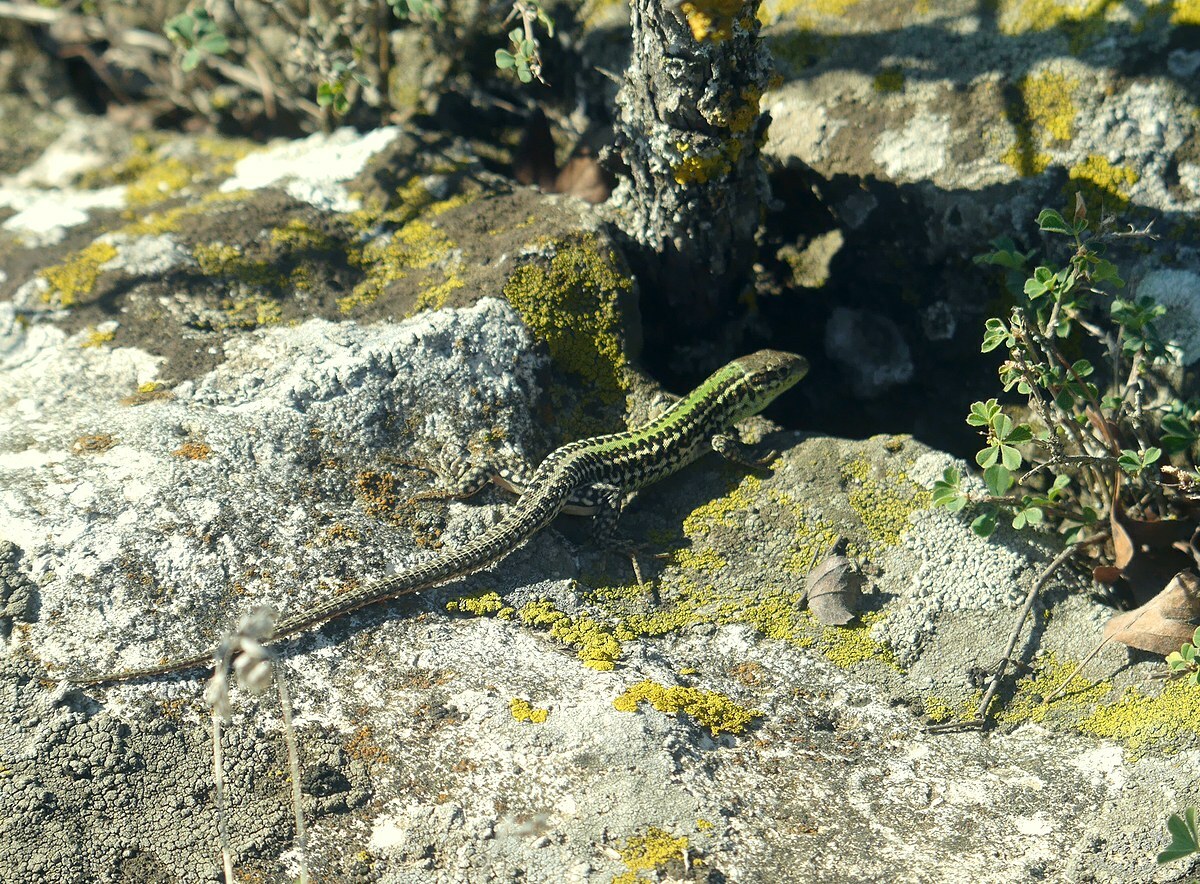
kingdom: Animalia
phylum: Chordata
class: Squamata
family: Lacertidae
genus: Podarcis
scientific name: Podarcis tauricus
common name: Balkan wall lizard
